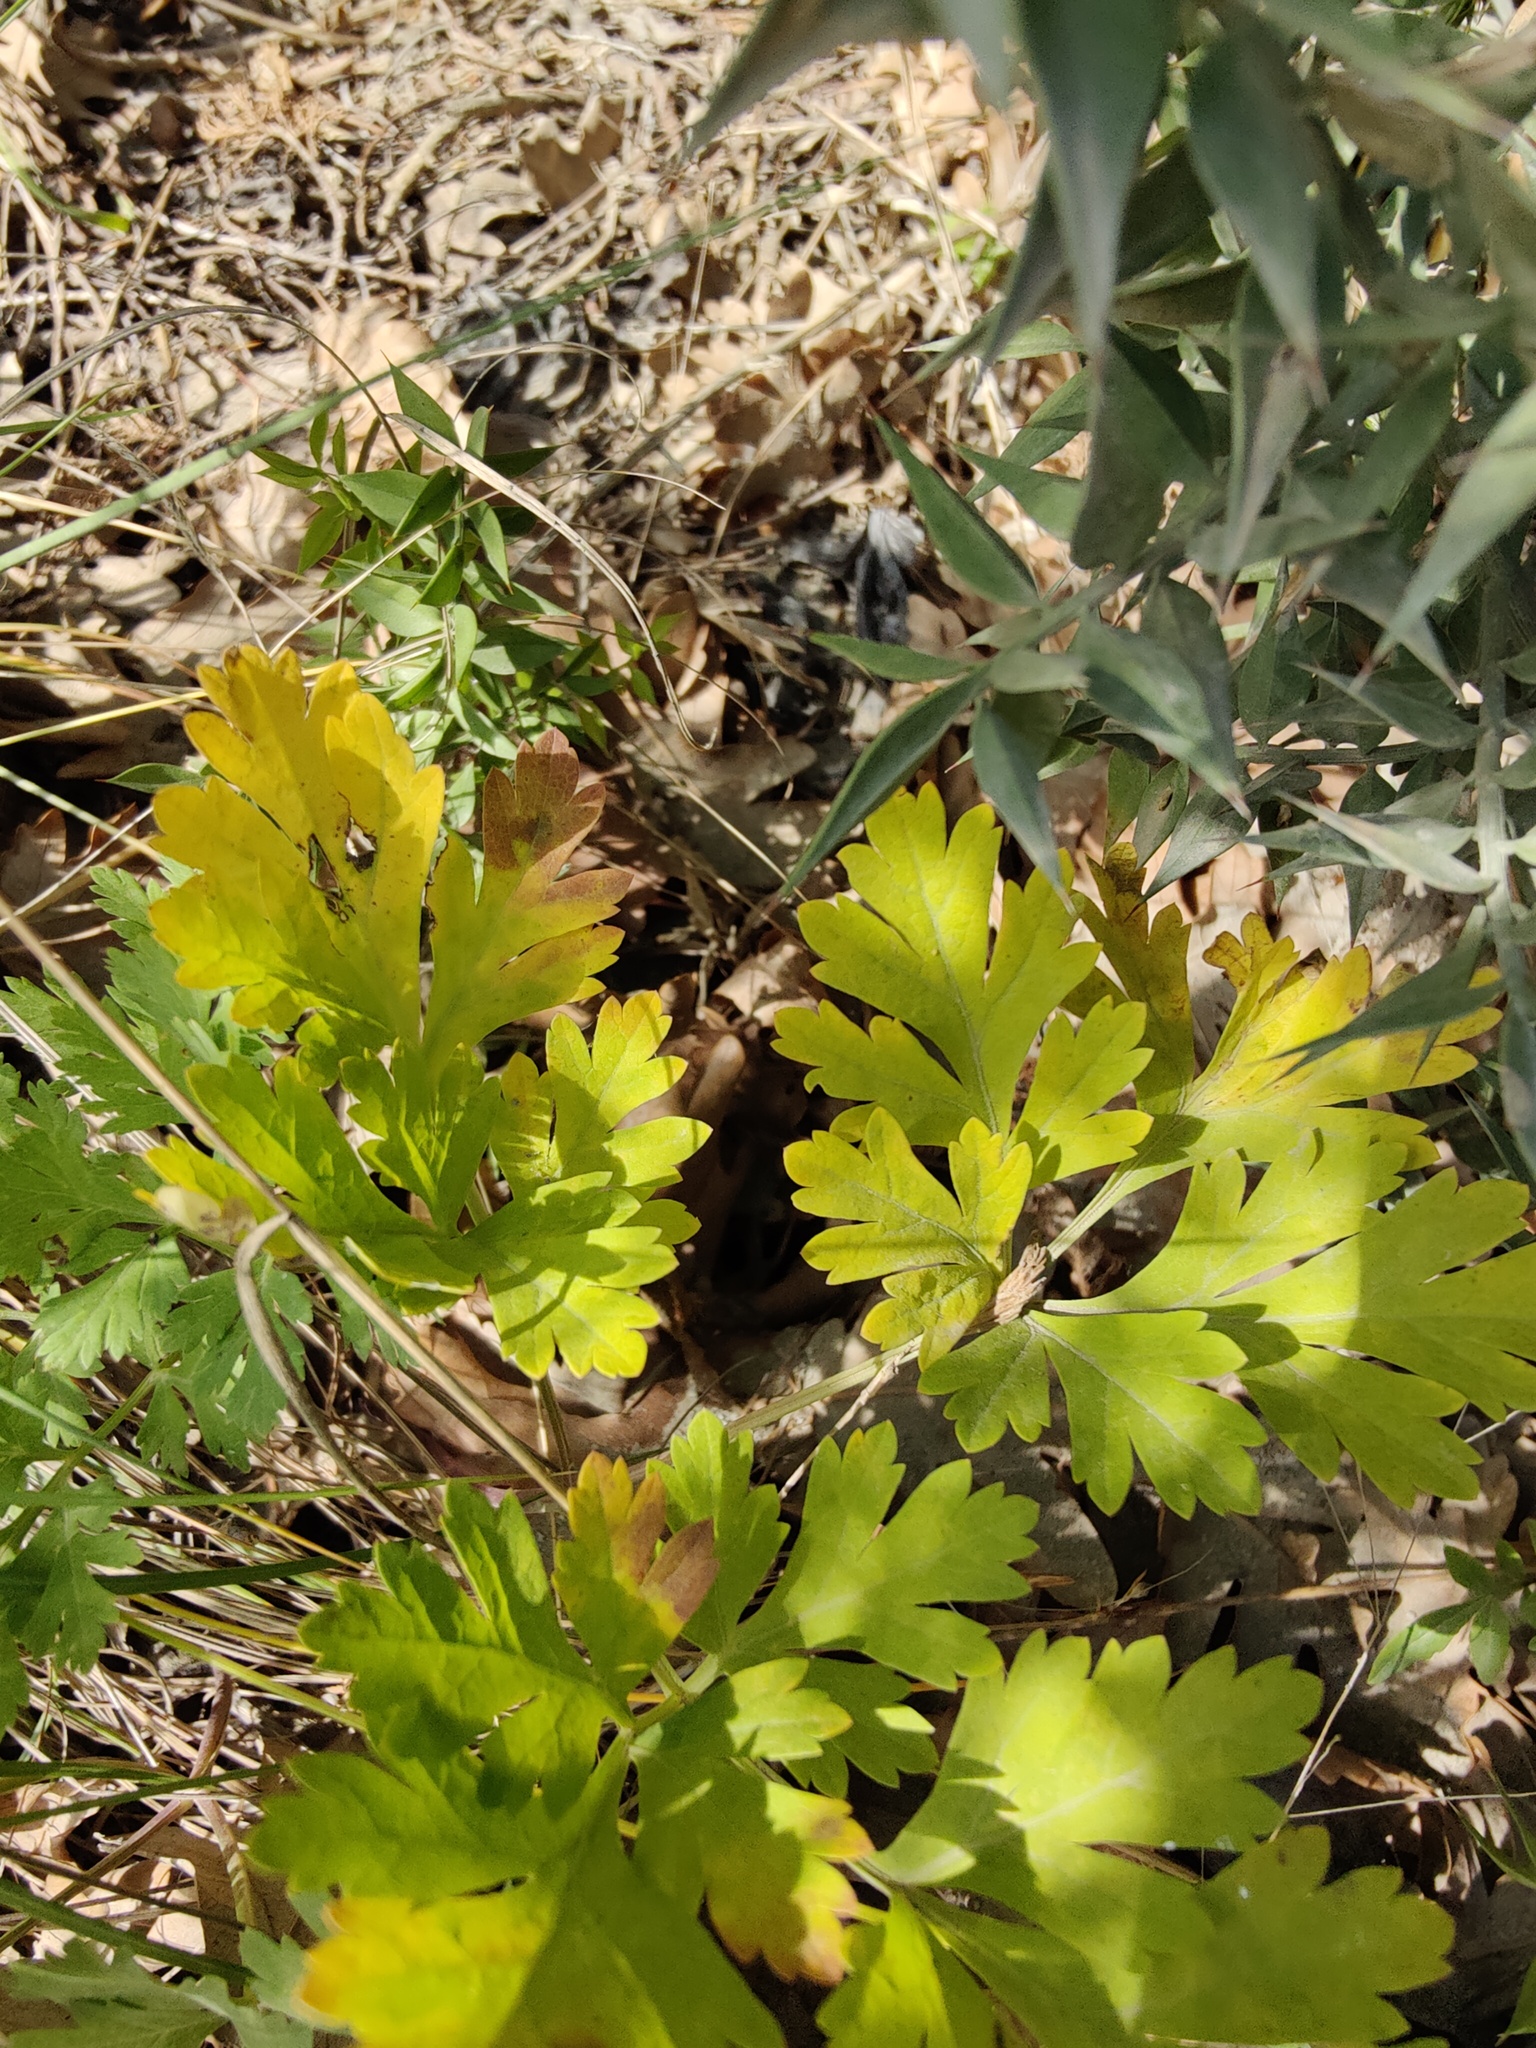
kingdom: Plantae
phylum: Tracheophyta
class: Magnoliopsida
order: Apiales
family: Apiaceae
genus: Physospermum
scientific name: Physospermum cornubiense
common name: Bladderseed
